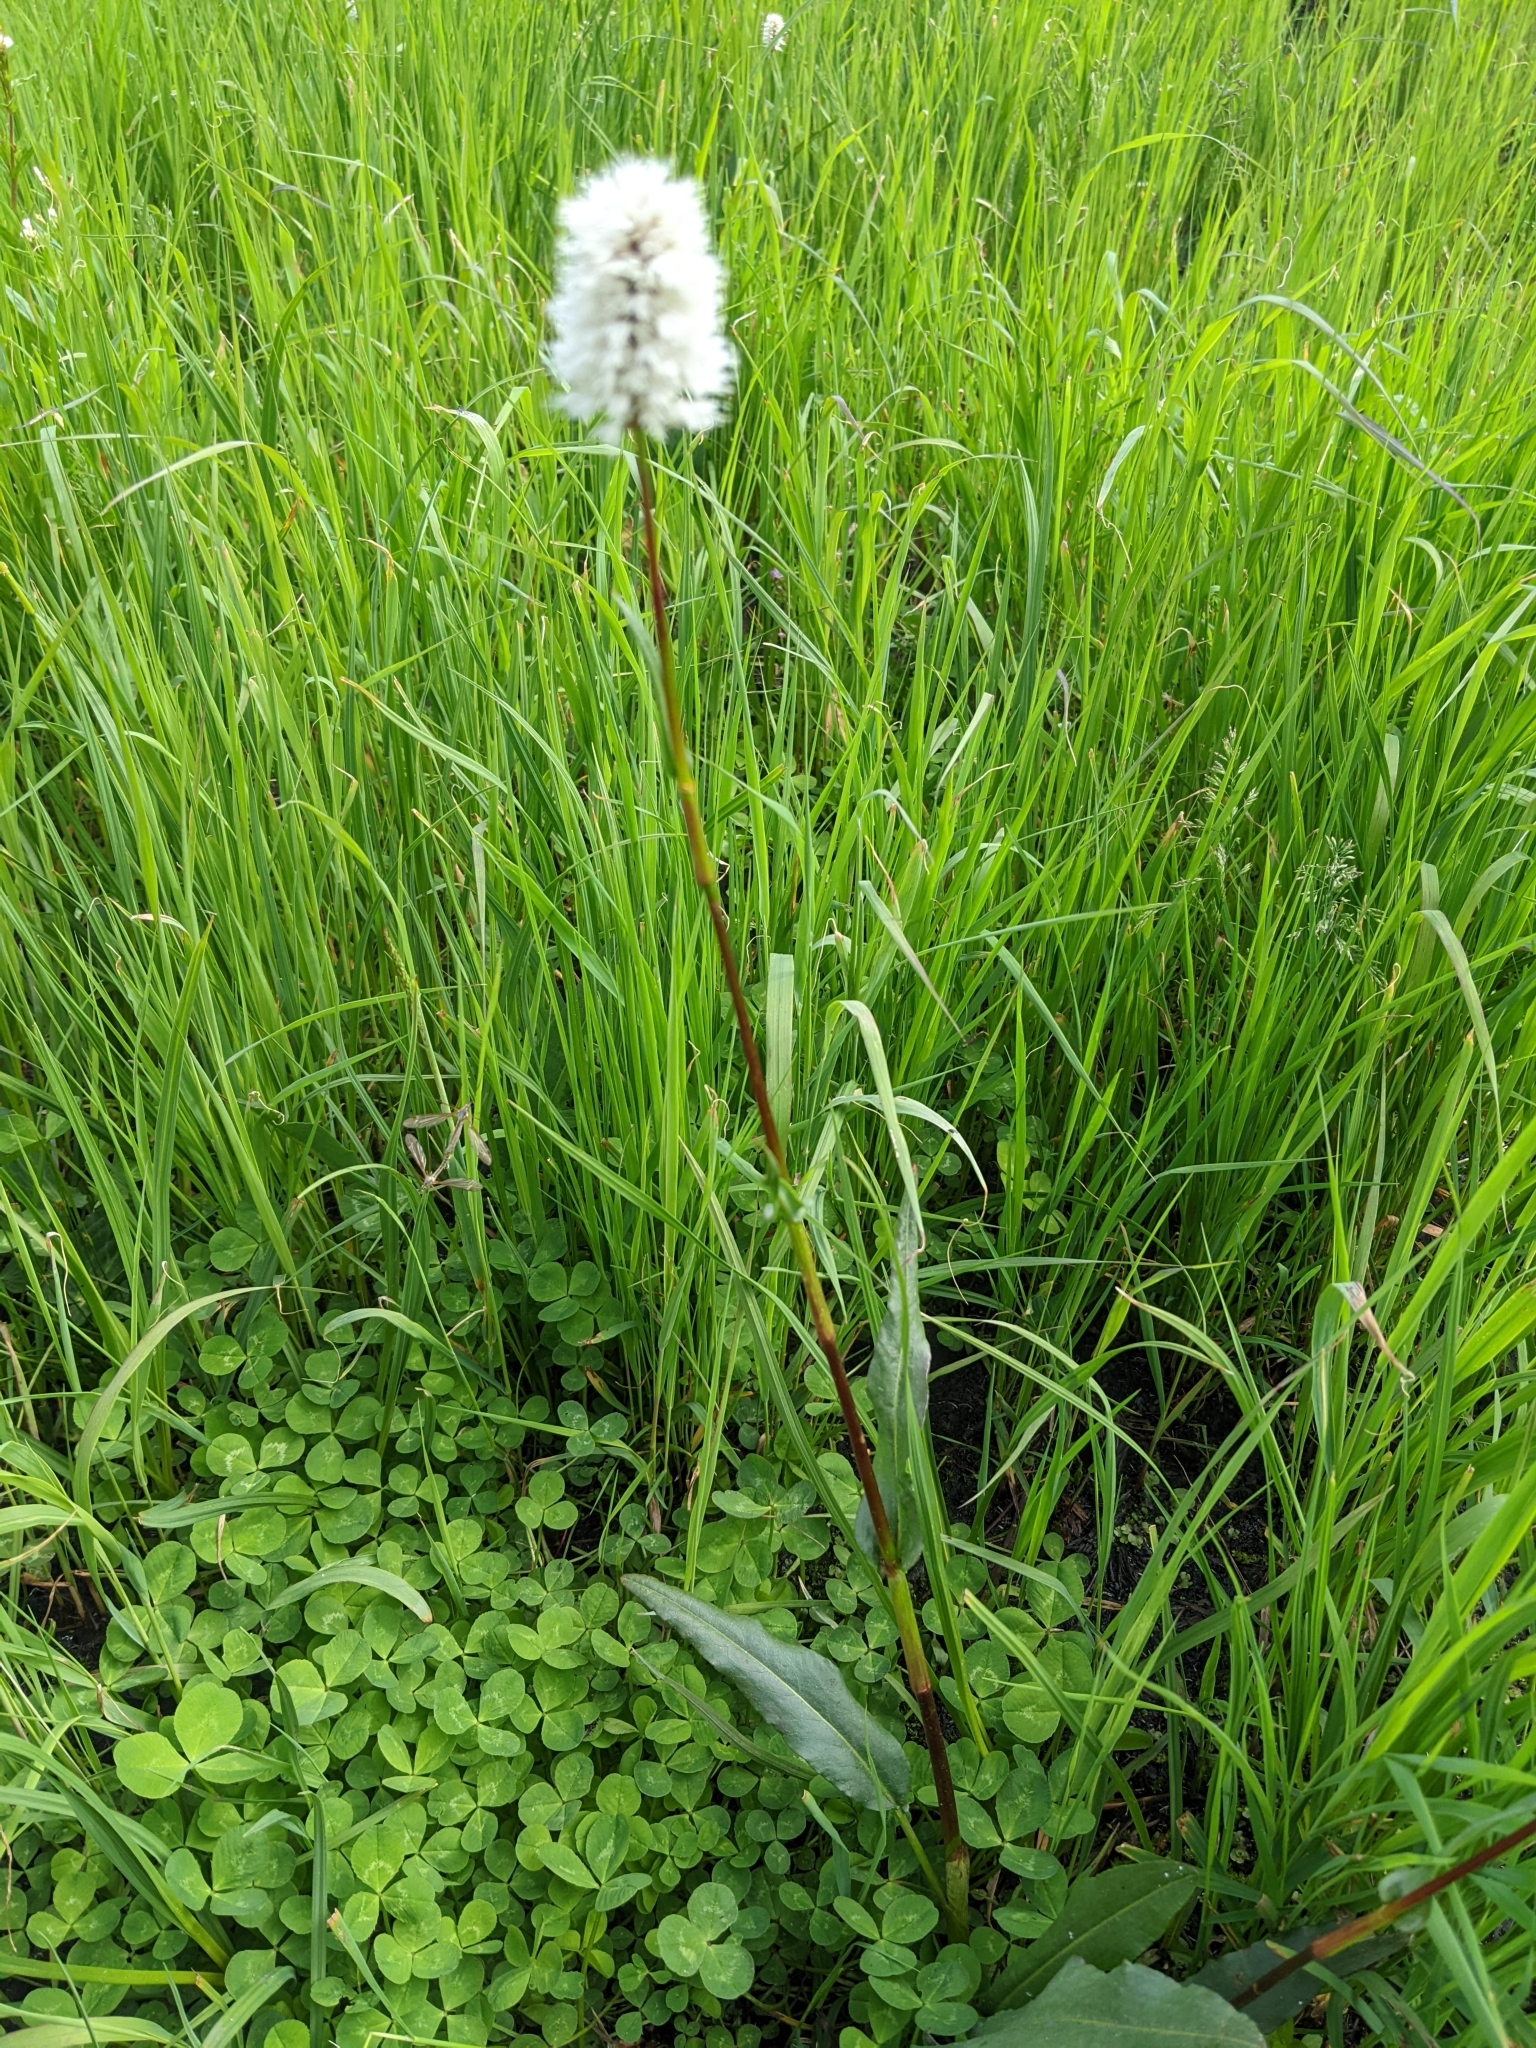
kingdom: Plantae
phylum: Tracheophyta
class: Magnoliopsida
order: Caryophyllales
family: Polygonaceae
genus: Bistorta
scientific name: Bistorta bistortoides
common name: American bistort
